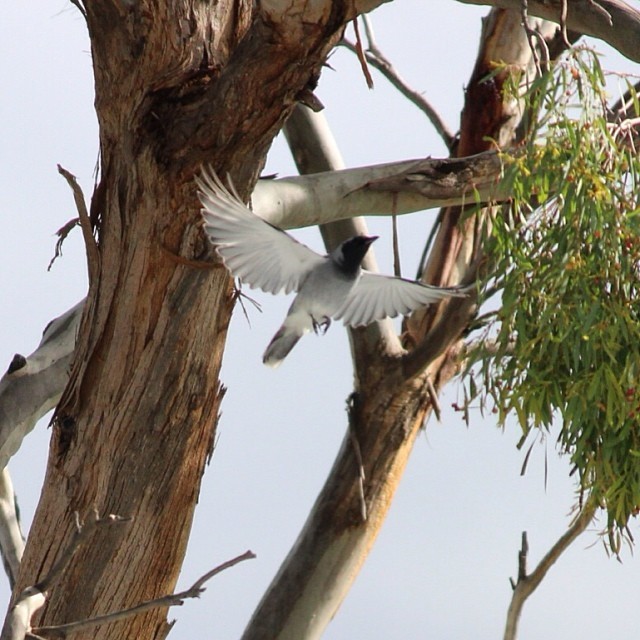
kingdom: Animalia
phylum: Chordata
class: Aves
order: Passeriformes
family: Campephagidae
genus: Coracina
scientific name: Coracina novaehollandiae
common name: Black-faced cuckooshrike
